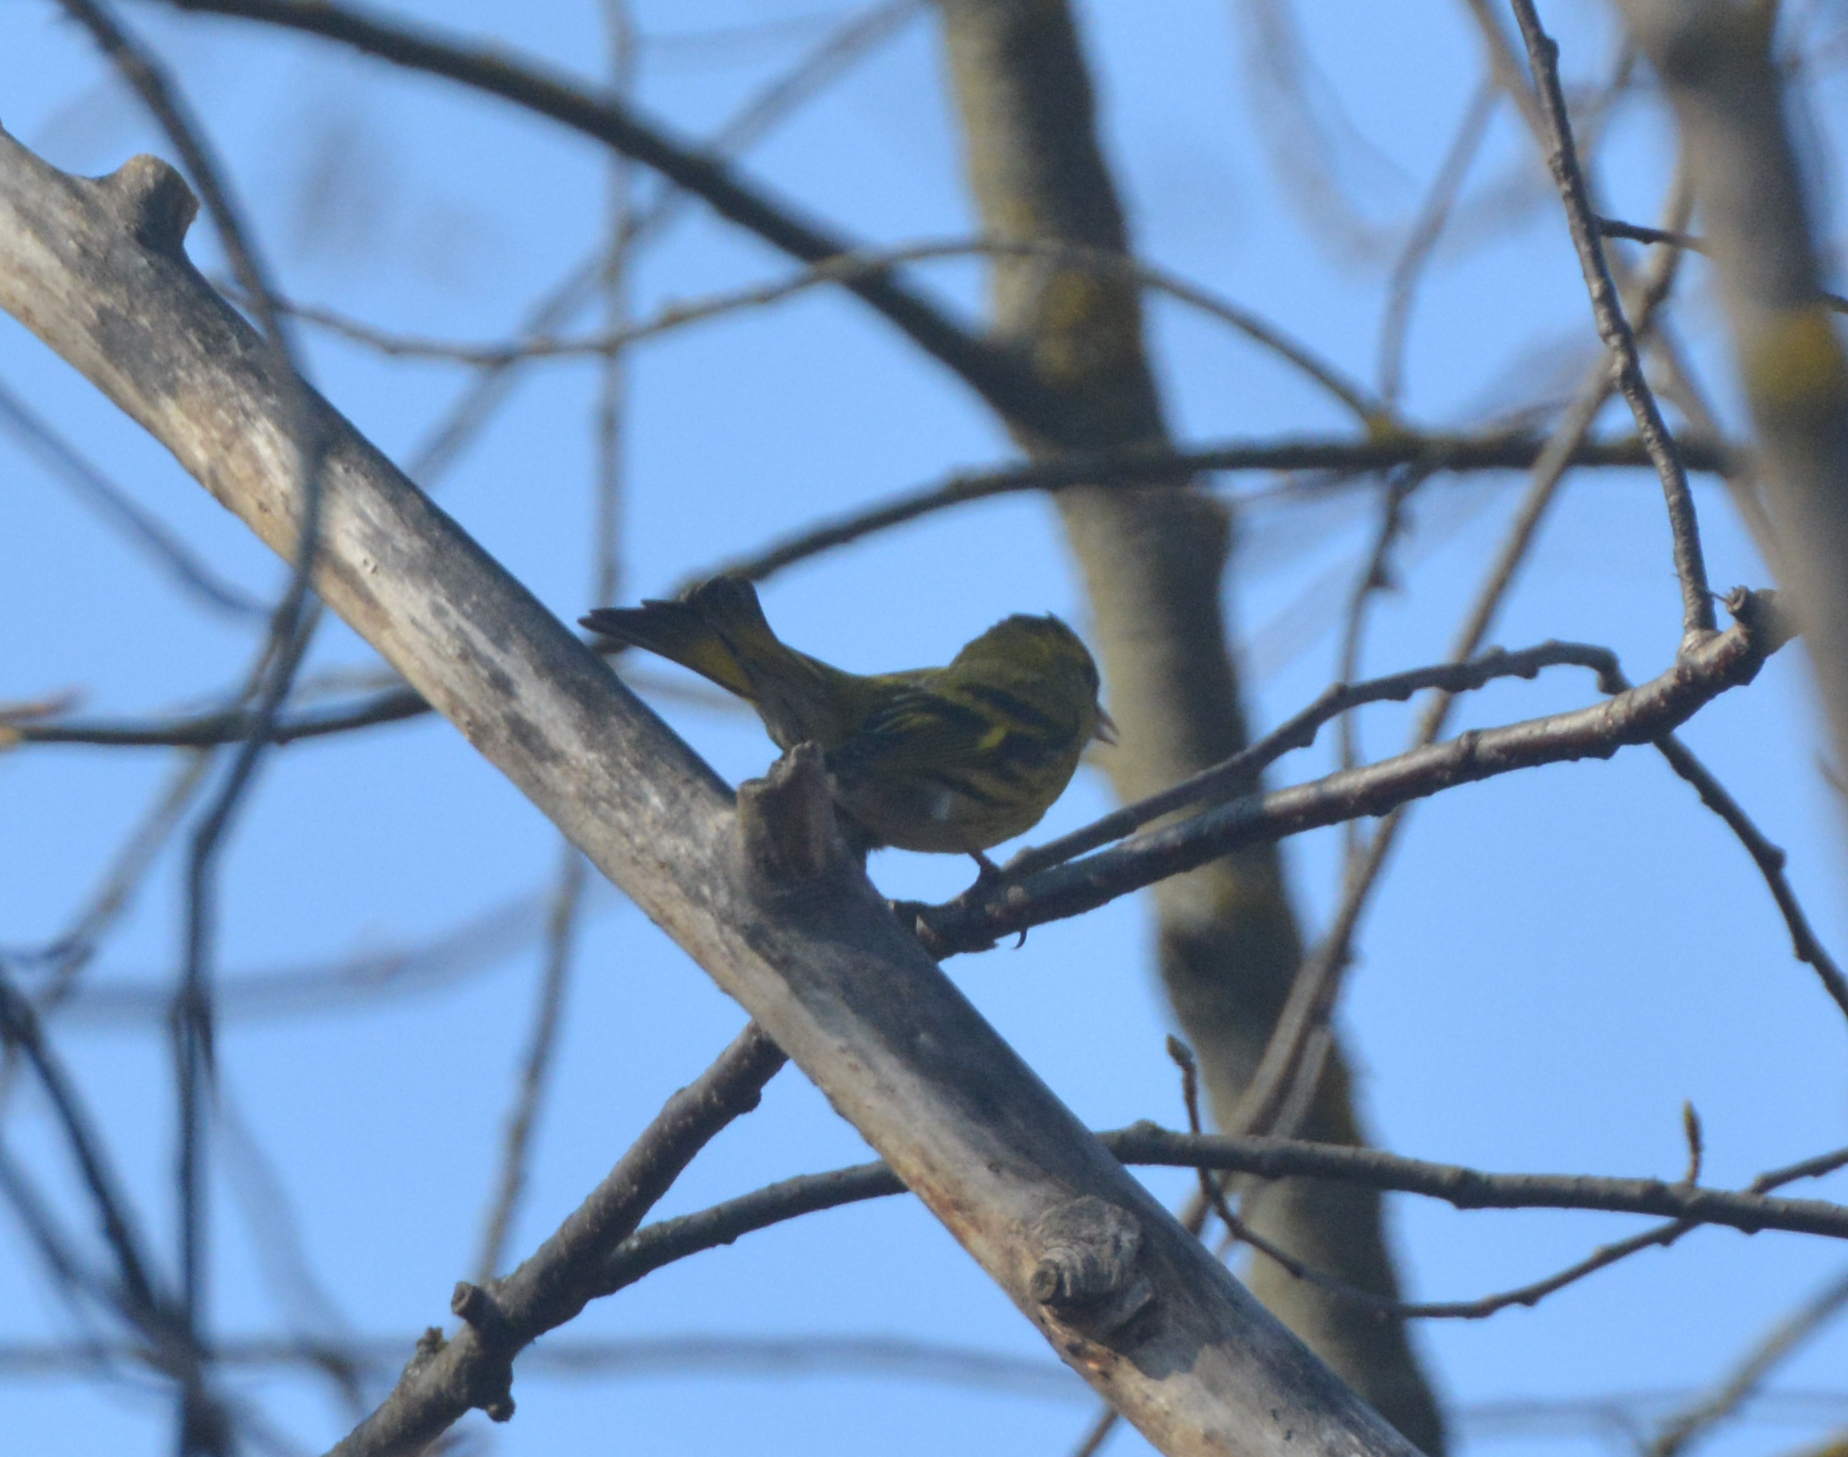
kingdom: Animalia
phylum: Chordata
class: Aves
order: Passeriformes
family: Fringillidae
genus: Spinus
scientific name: Spinus spinus
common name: Eurasian siskin
